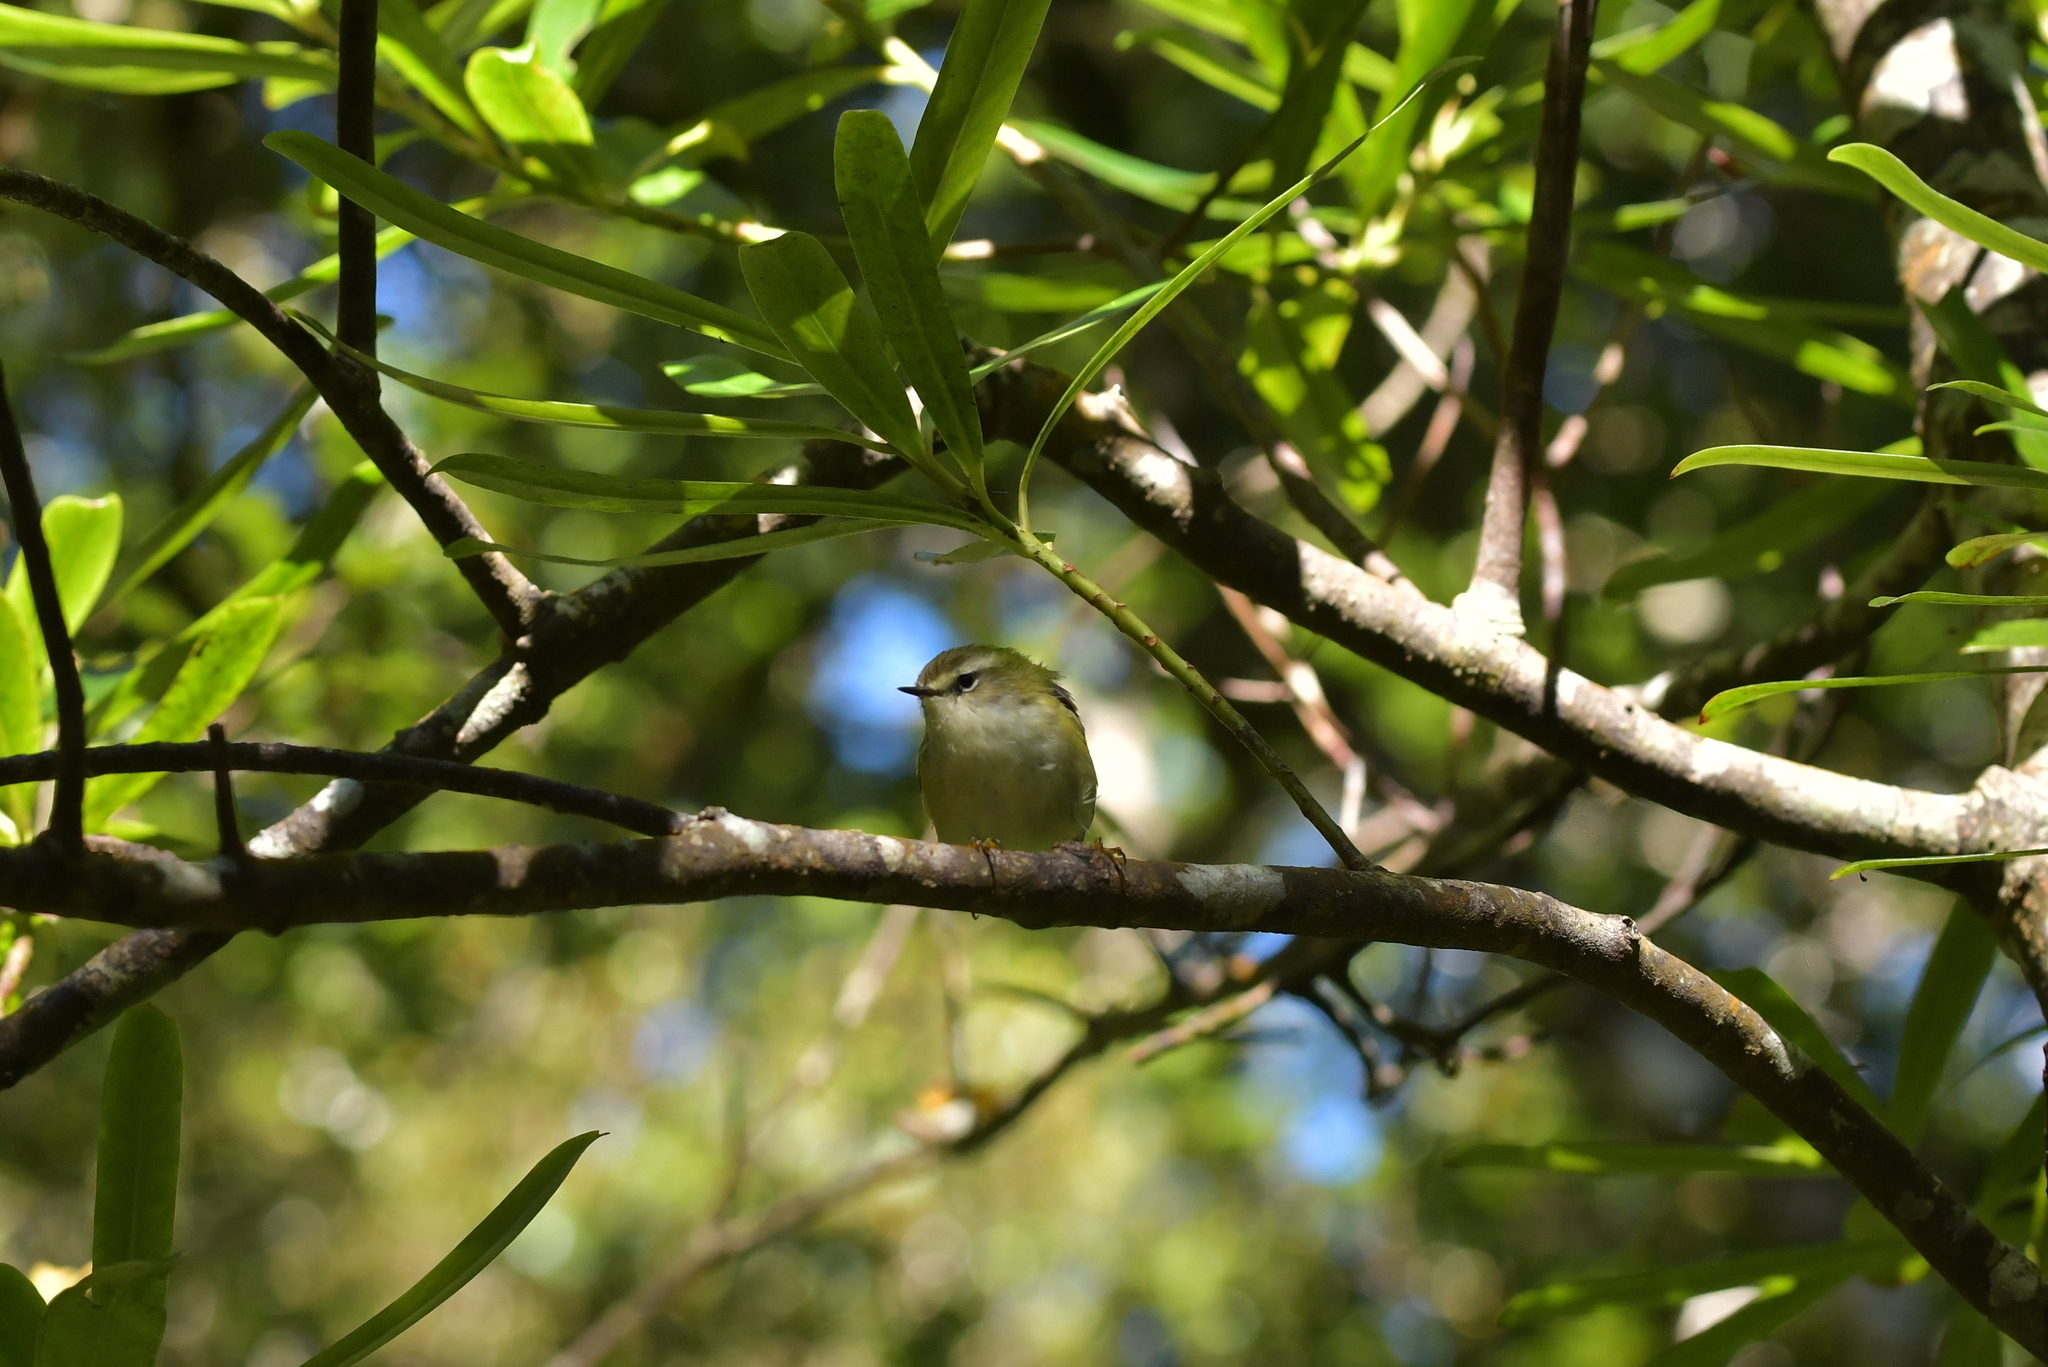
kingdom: Animalia
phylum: Chordata
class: Aves
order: Passeriformes
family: Acanthisittidae
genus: Acanthisitta
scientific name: Acanthisitta chloris
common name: Rifleman
